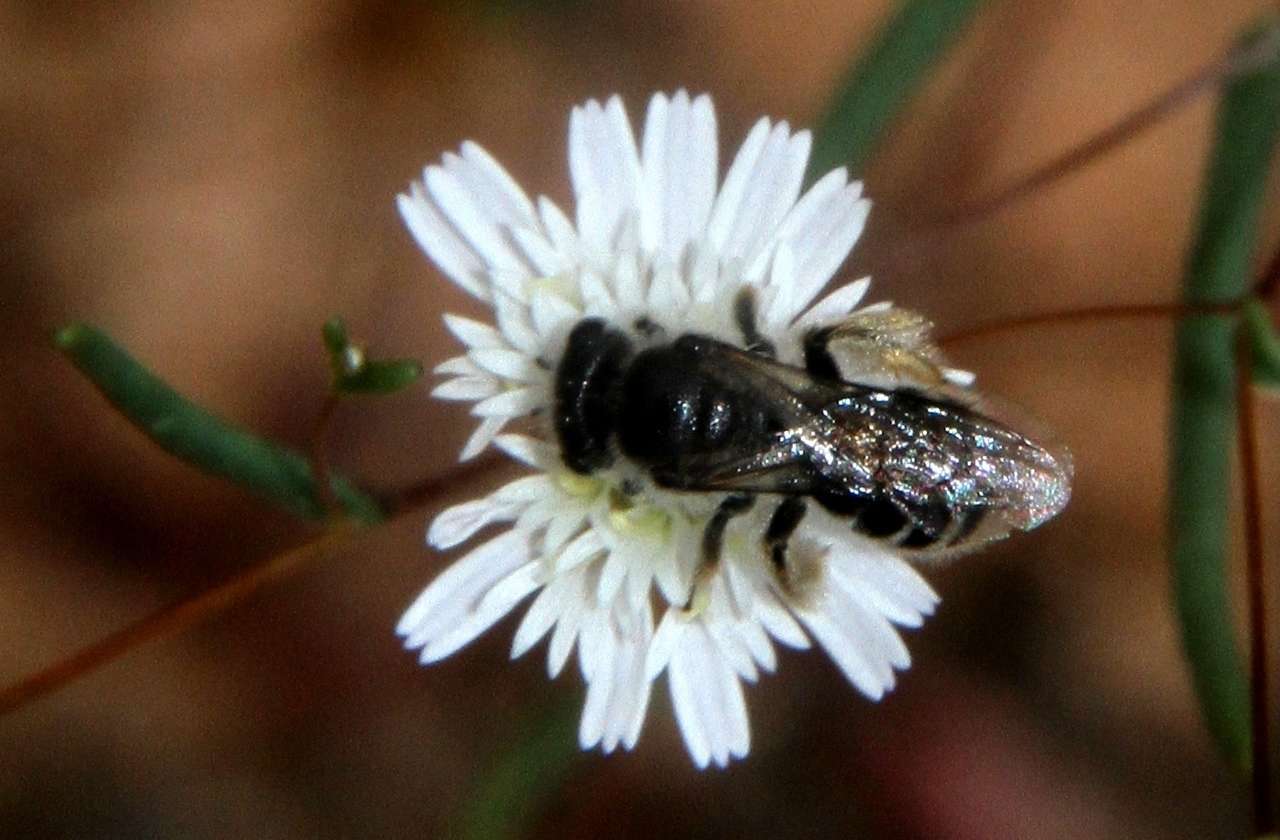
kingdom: Plantae
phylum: Tracheophyta
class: Magnoliopsida
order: Asterales
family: Asteraceae
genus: Siemssenia
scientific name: Siemssenia capillaris
